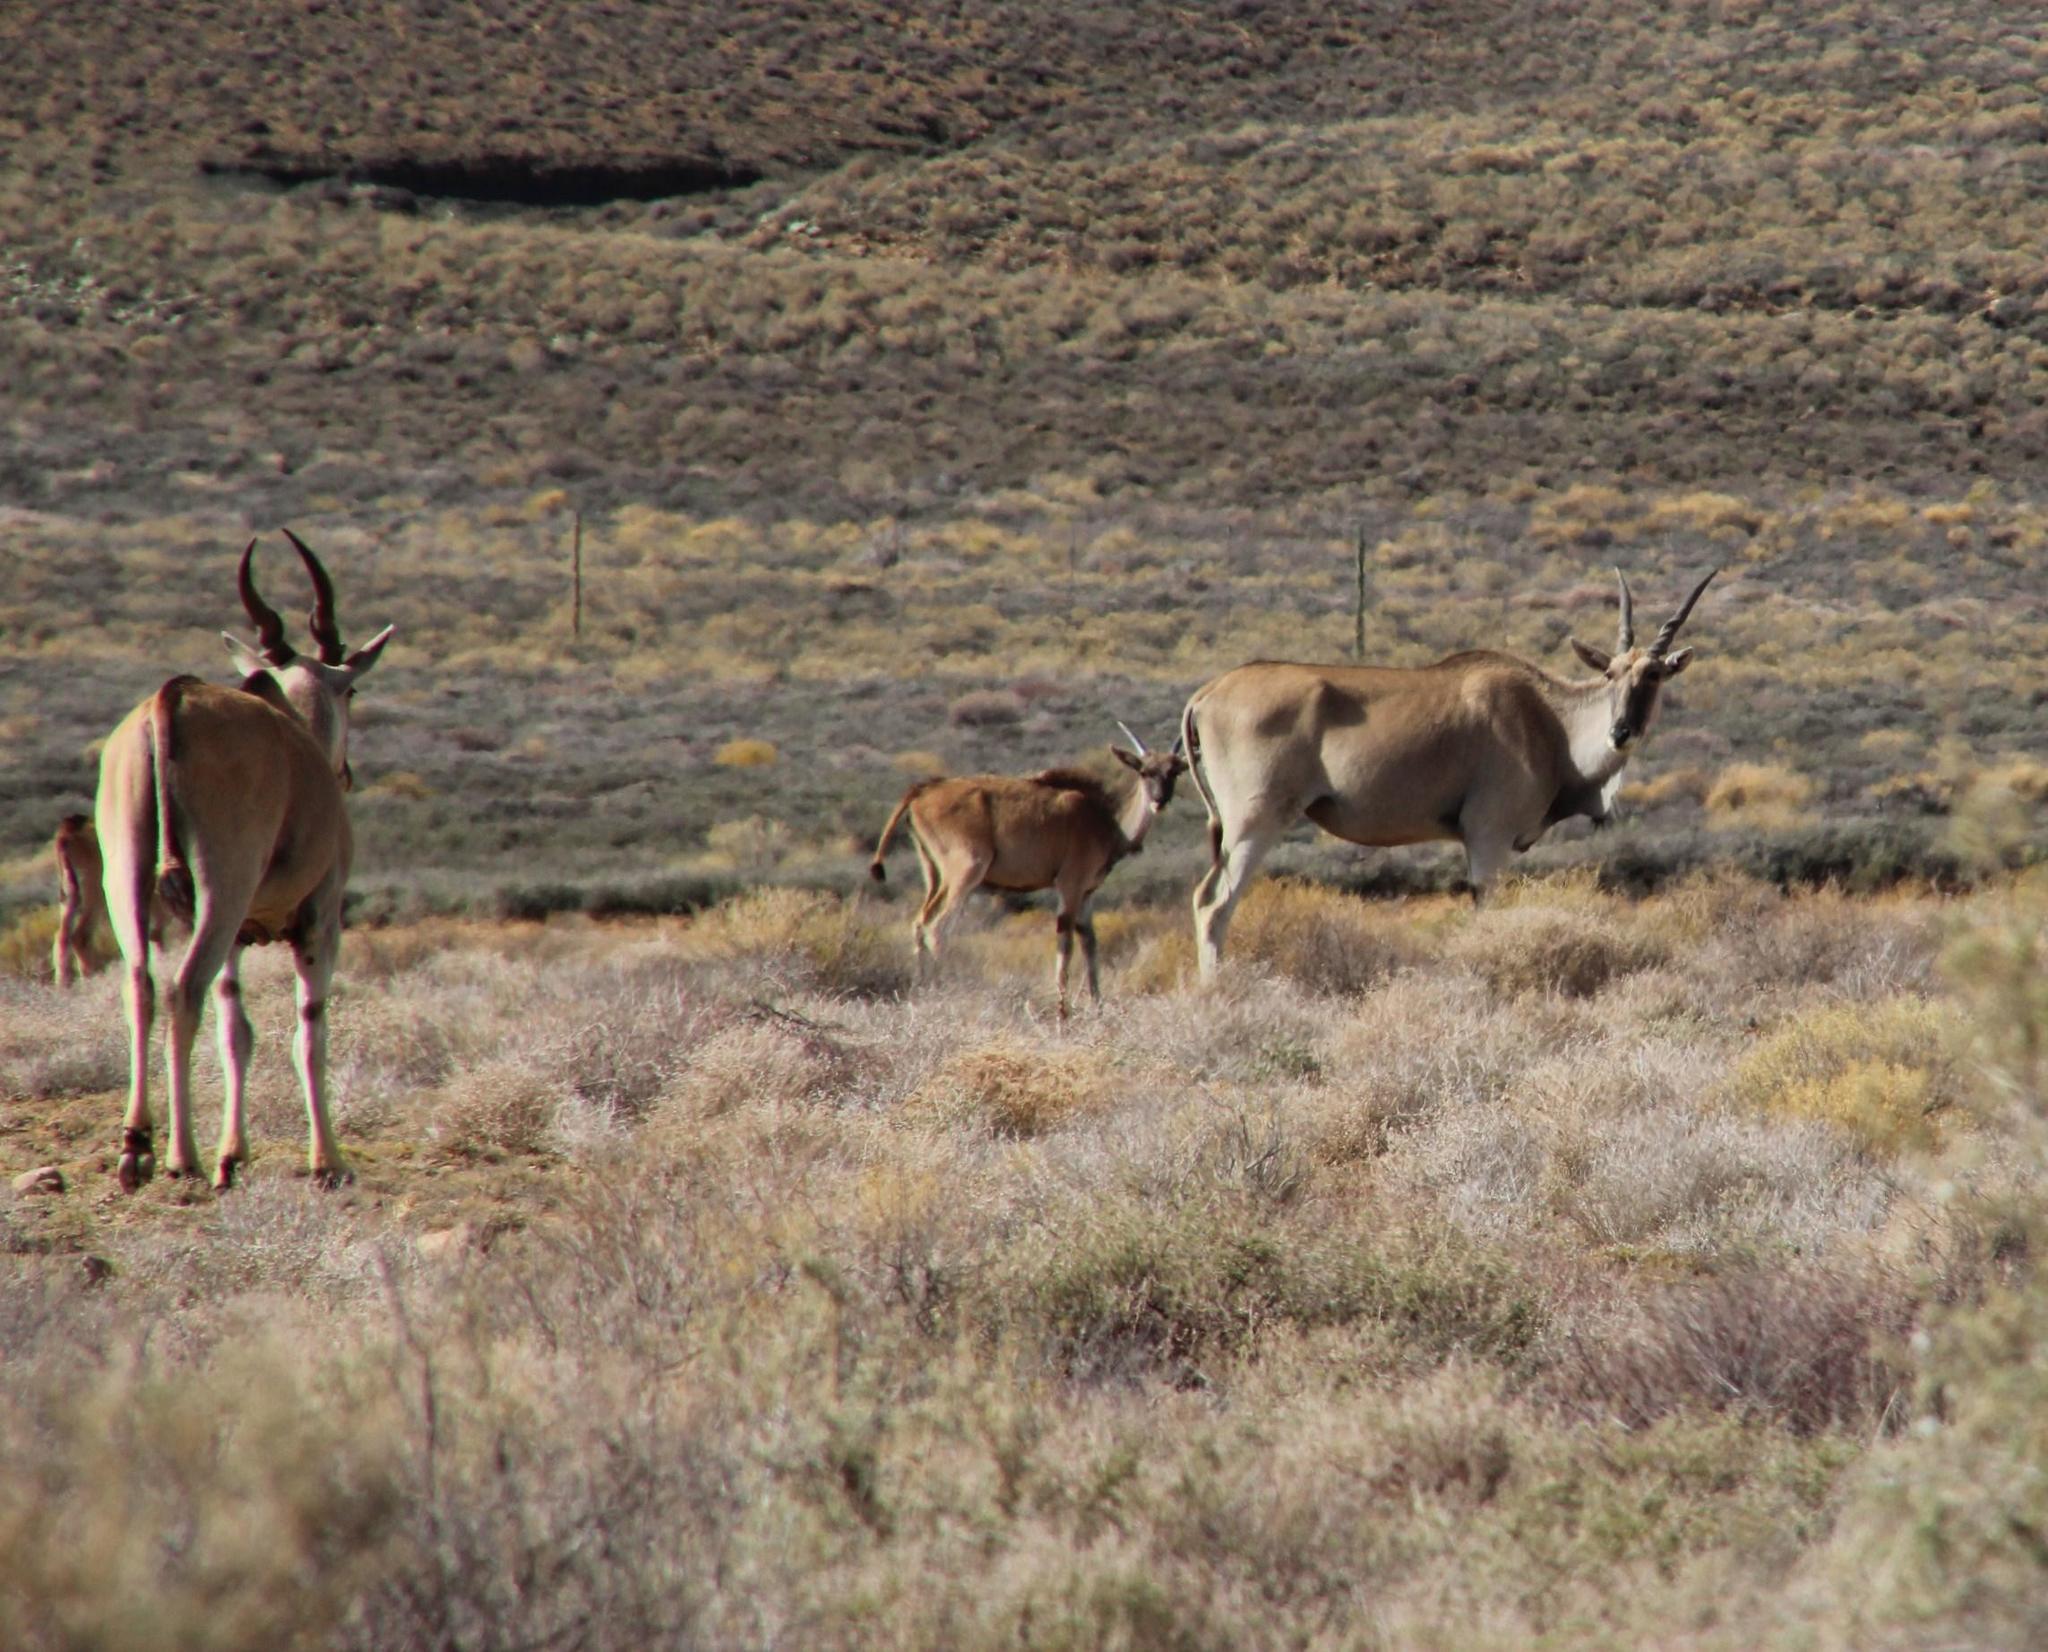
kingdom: Animalia
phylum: Chordata
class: Mammalia
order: Artiodactyla
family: Bovidae
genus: Taurotragus
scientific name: Taurotragus oryx
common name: Common eland
